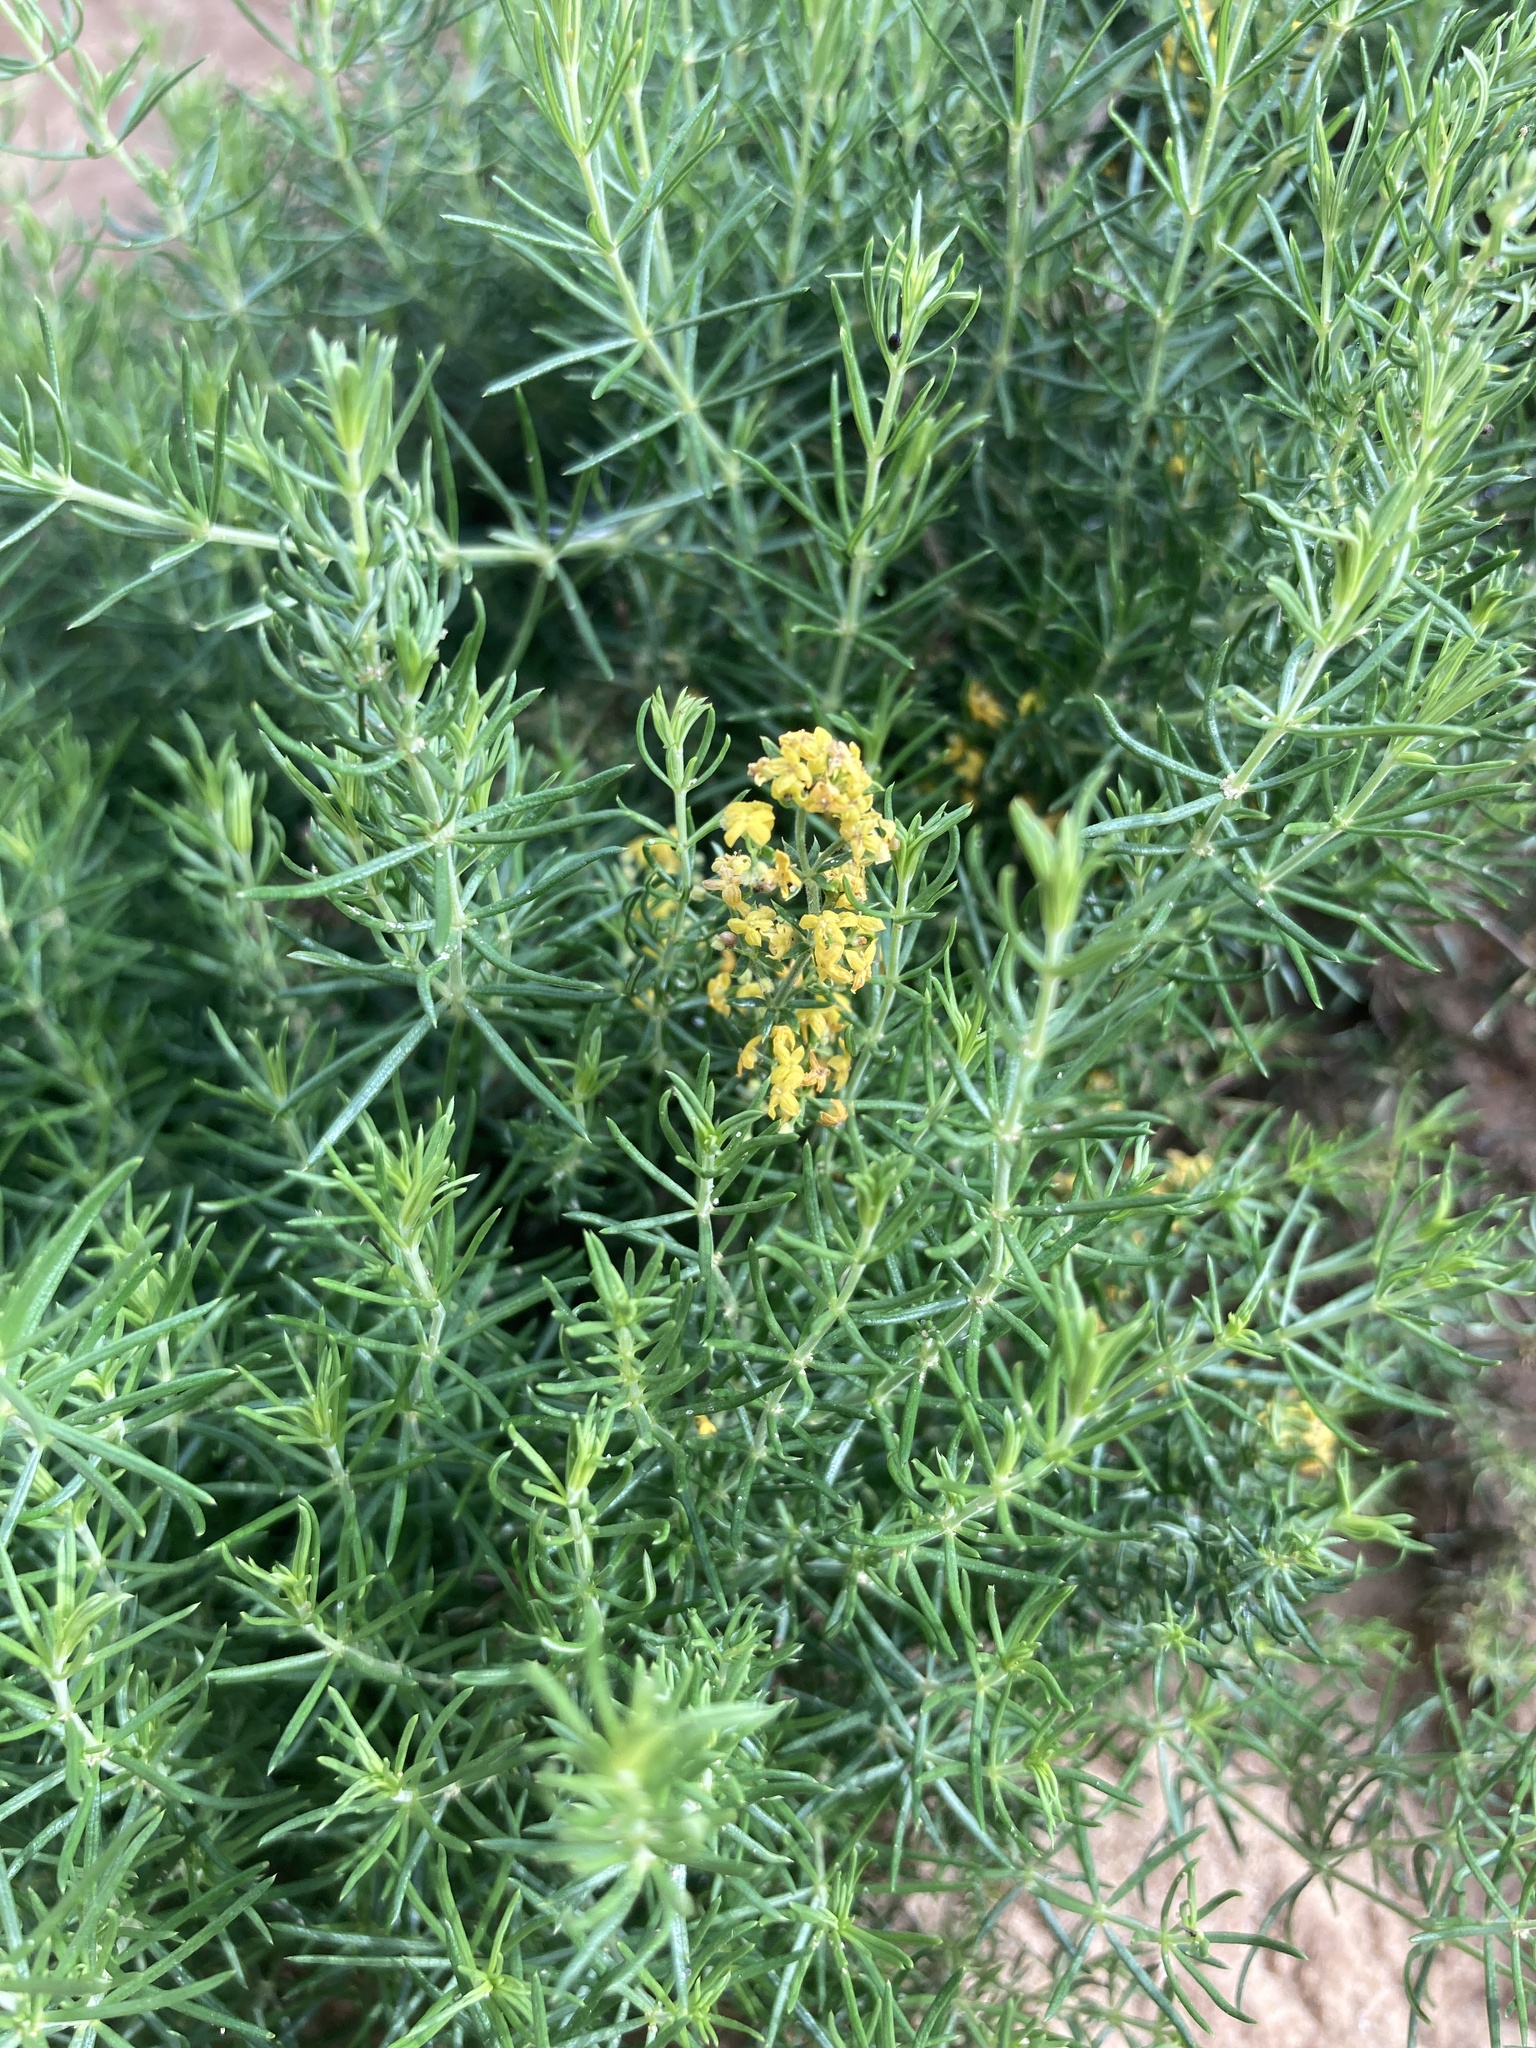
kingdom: Plantae
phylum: Tracheophyta
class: Magnoliopsida
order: Gentianales
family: Rubiaceae
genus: Galium
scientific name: Galium verum
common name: Lady's bedstraw
